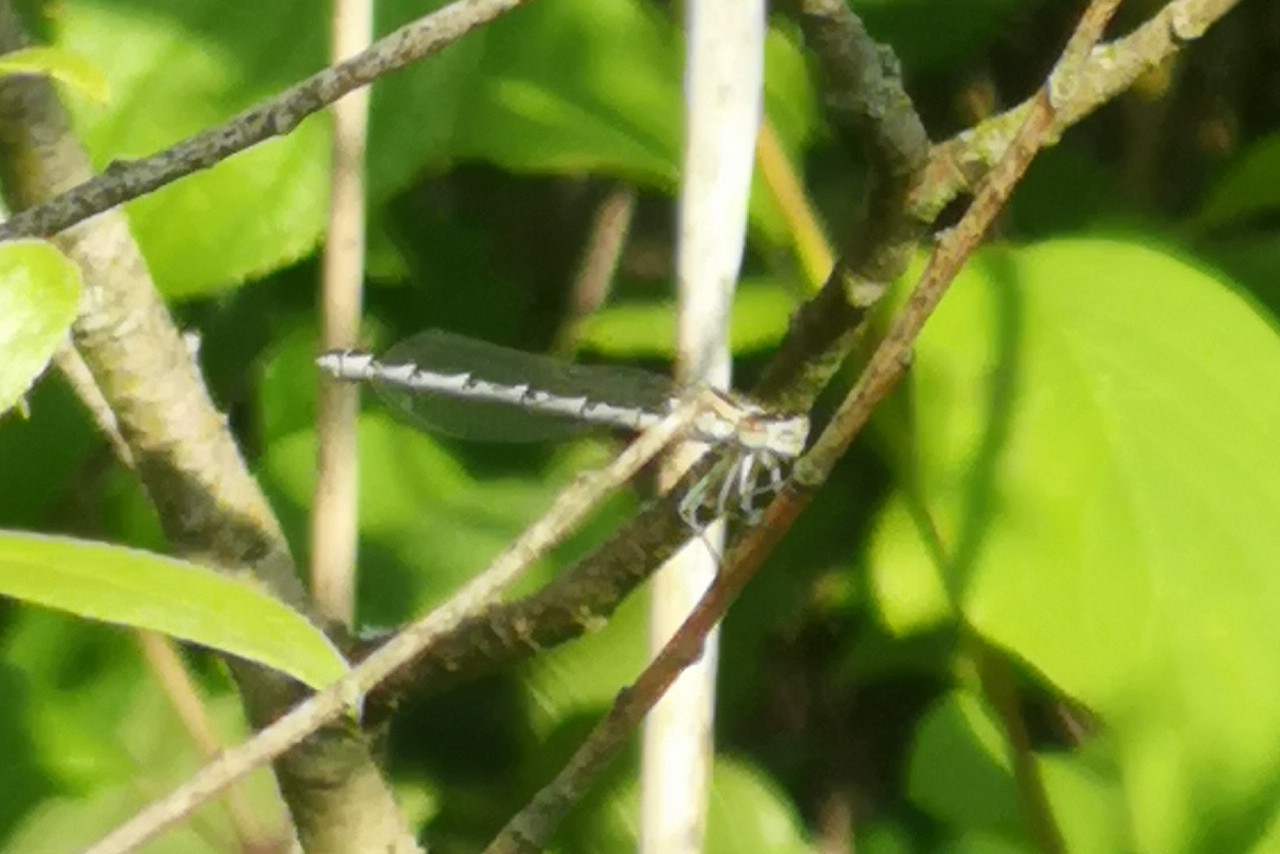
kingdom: Animalia
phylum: Arthropoda
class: Insecta
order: Odonata
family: Coenagrionidae
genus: Enallagma
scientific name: Enallagma cyathigerum
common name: Common blue damselfly
